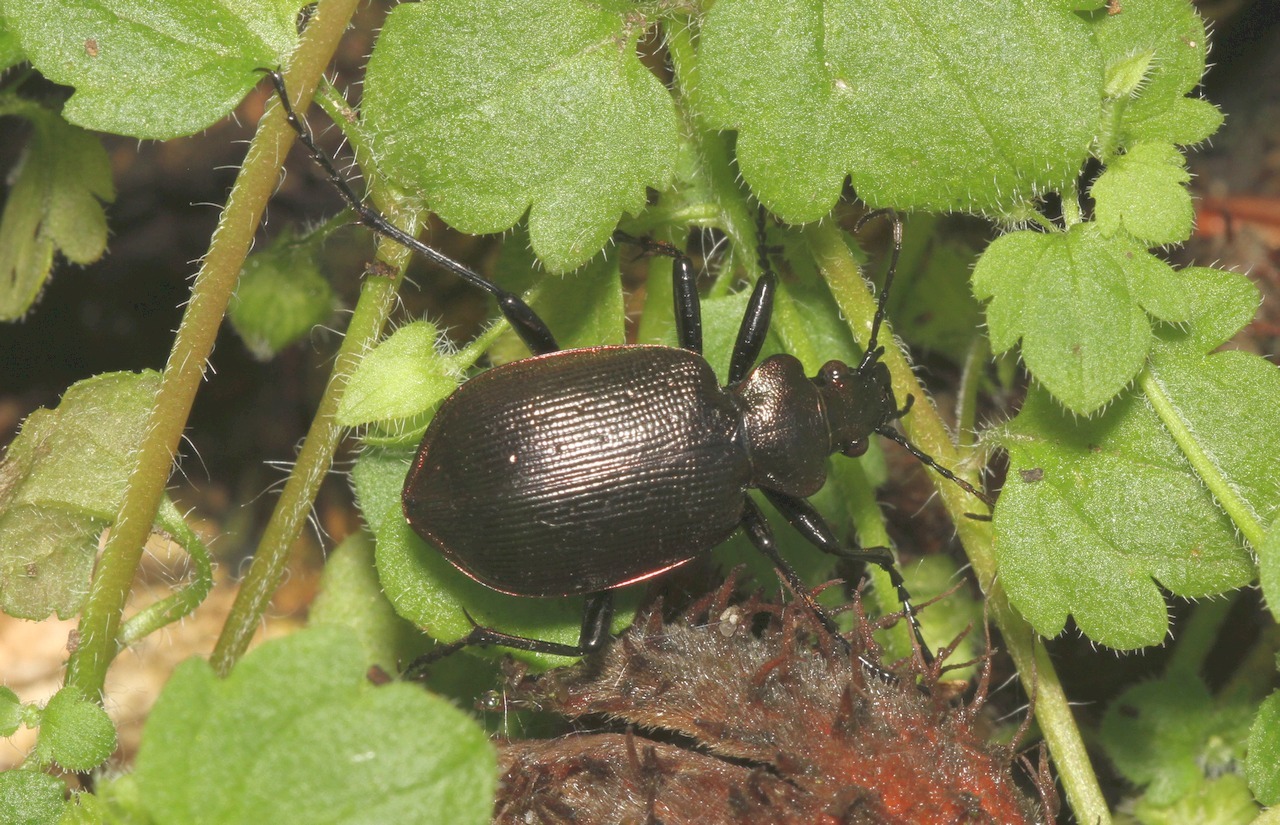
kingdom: Animalia
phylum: Arthropoda
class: Insecta
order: Coleoptera
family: Carabidae
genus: Calosoma
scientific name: Calosoma inquisitor
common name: Caterpillar-hunter
